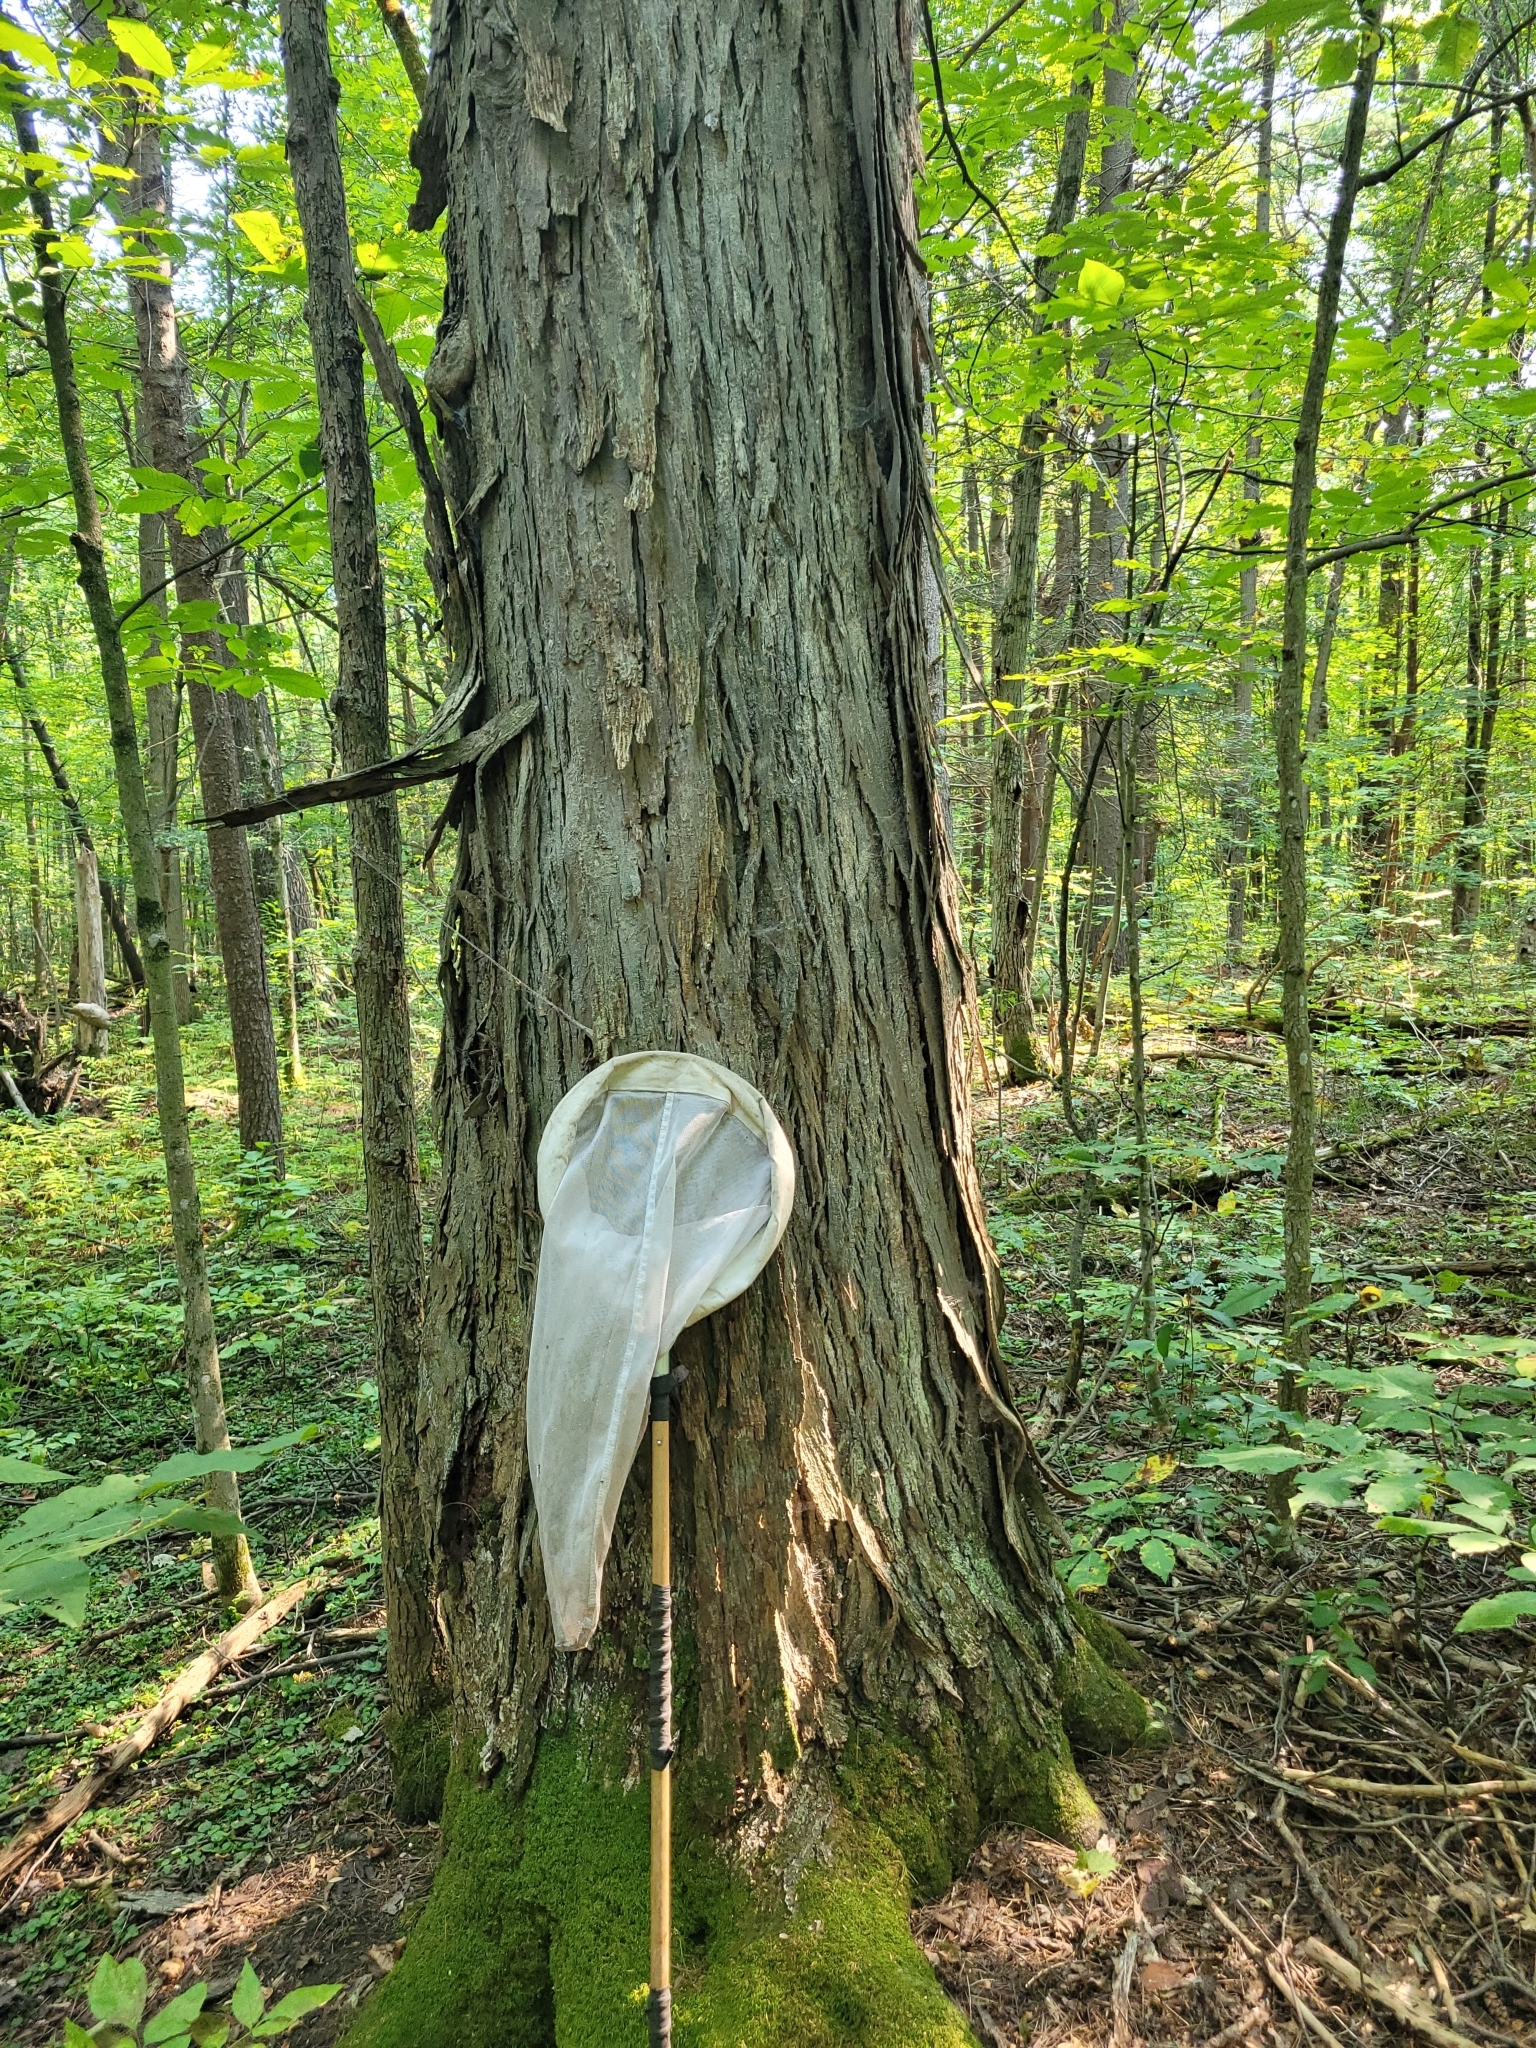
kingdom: Plantae
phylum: Tracheophyta
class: Magnoliopsida
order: Fagales
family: Juglandaceae
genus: Carya
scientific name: Carya ovata
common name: Shagbark hickory
